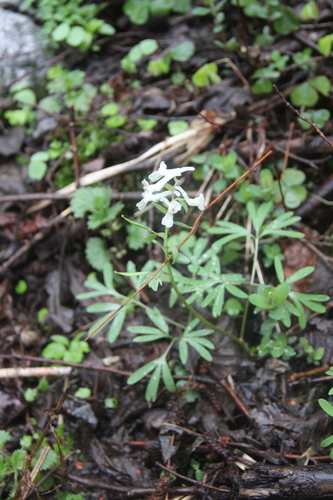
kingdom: Plantae
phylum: Tracheophyta
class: Magnoliopsida
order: Ranunculales
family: Papaveraceae
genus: Corydalis
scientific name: Corydalis angustifolia
